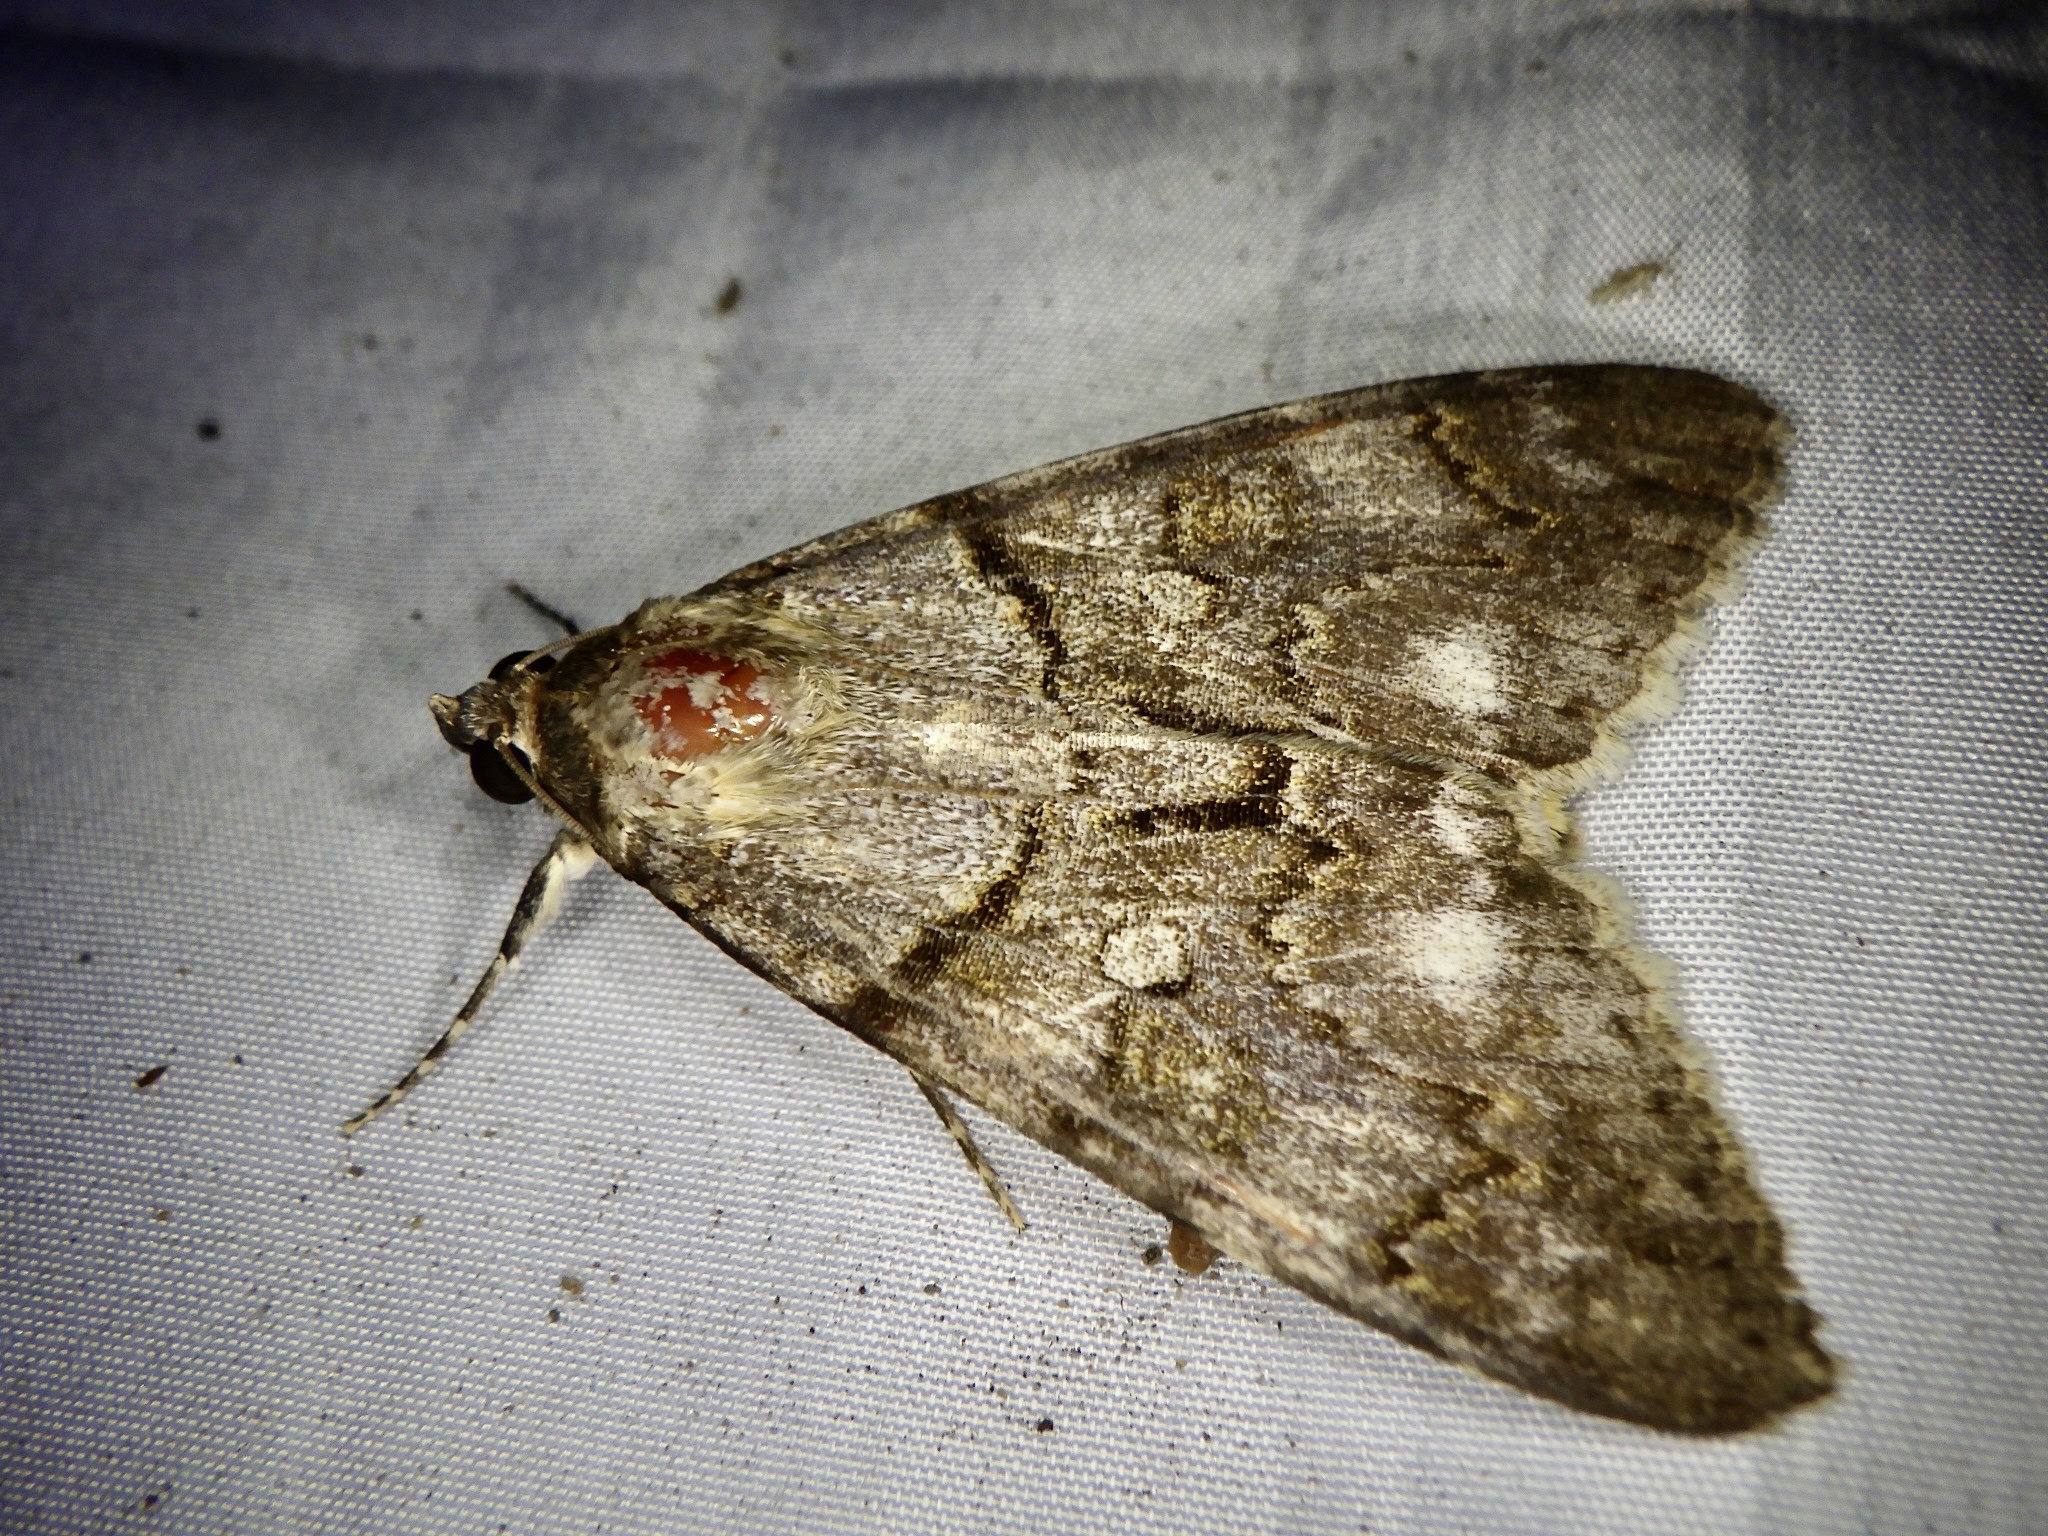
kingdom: Animalia
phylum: Arthropoda
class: Insecta
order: Lepidoptera
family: Erebidae
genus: Catocala
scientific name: Catocala jonasii
